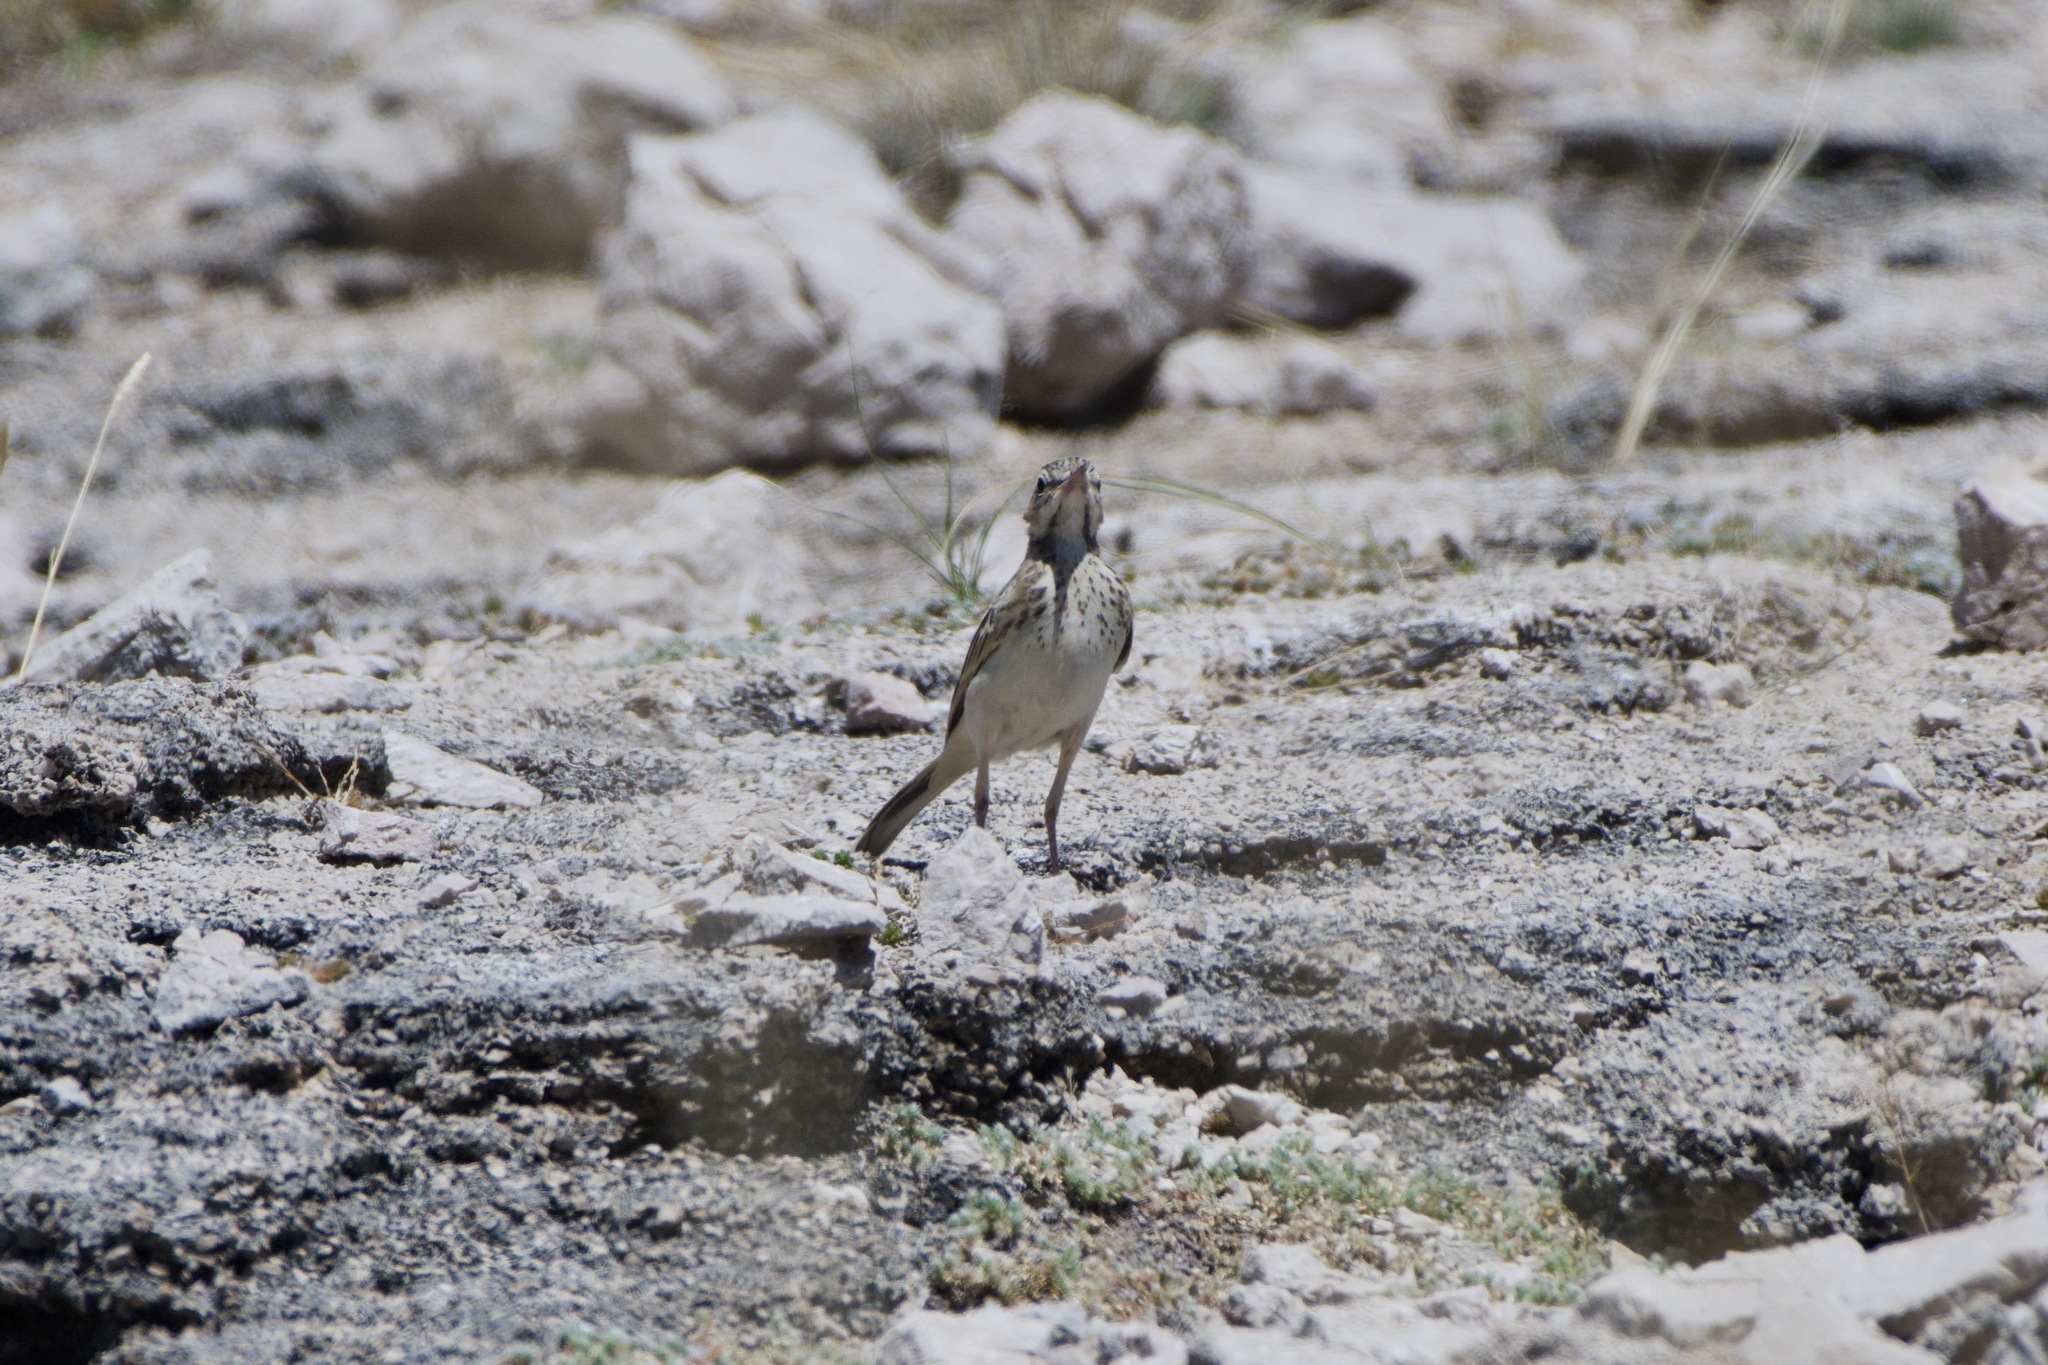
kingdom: Animalia
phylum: Chordata
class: Aves
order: Passeriformes
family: Motacillidae
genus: Anthus
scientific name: Anthus campestris
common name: Tawny pipit
